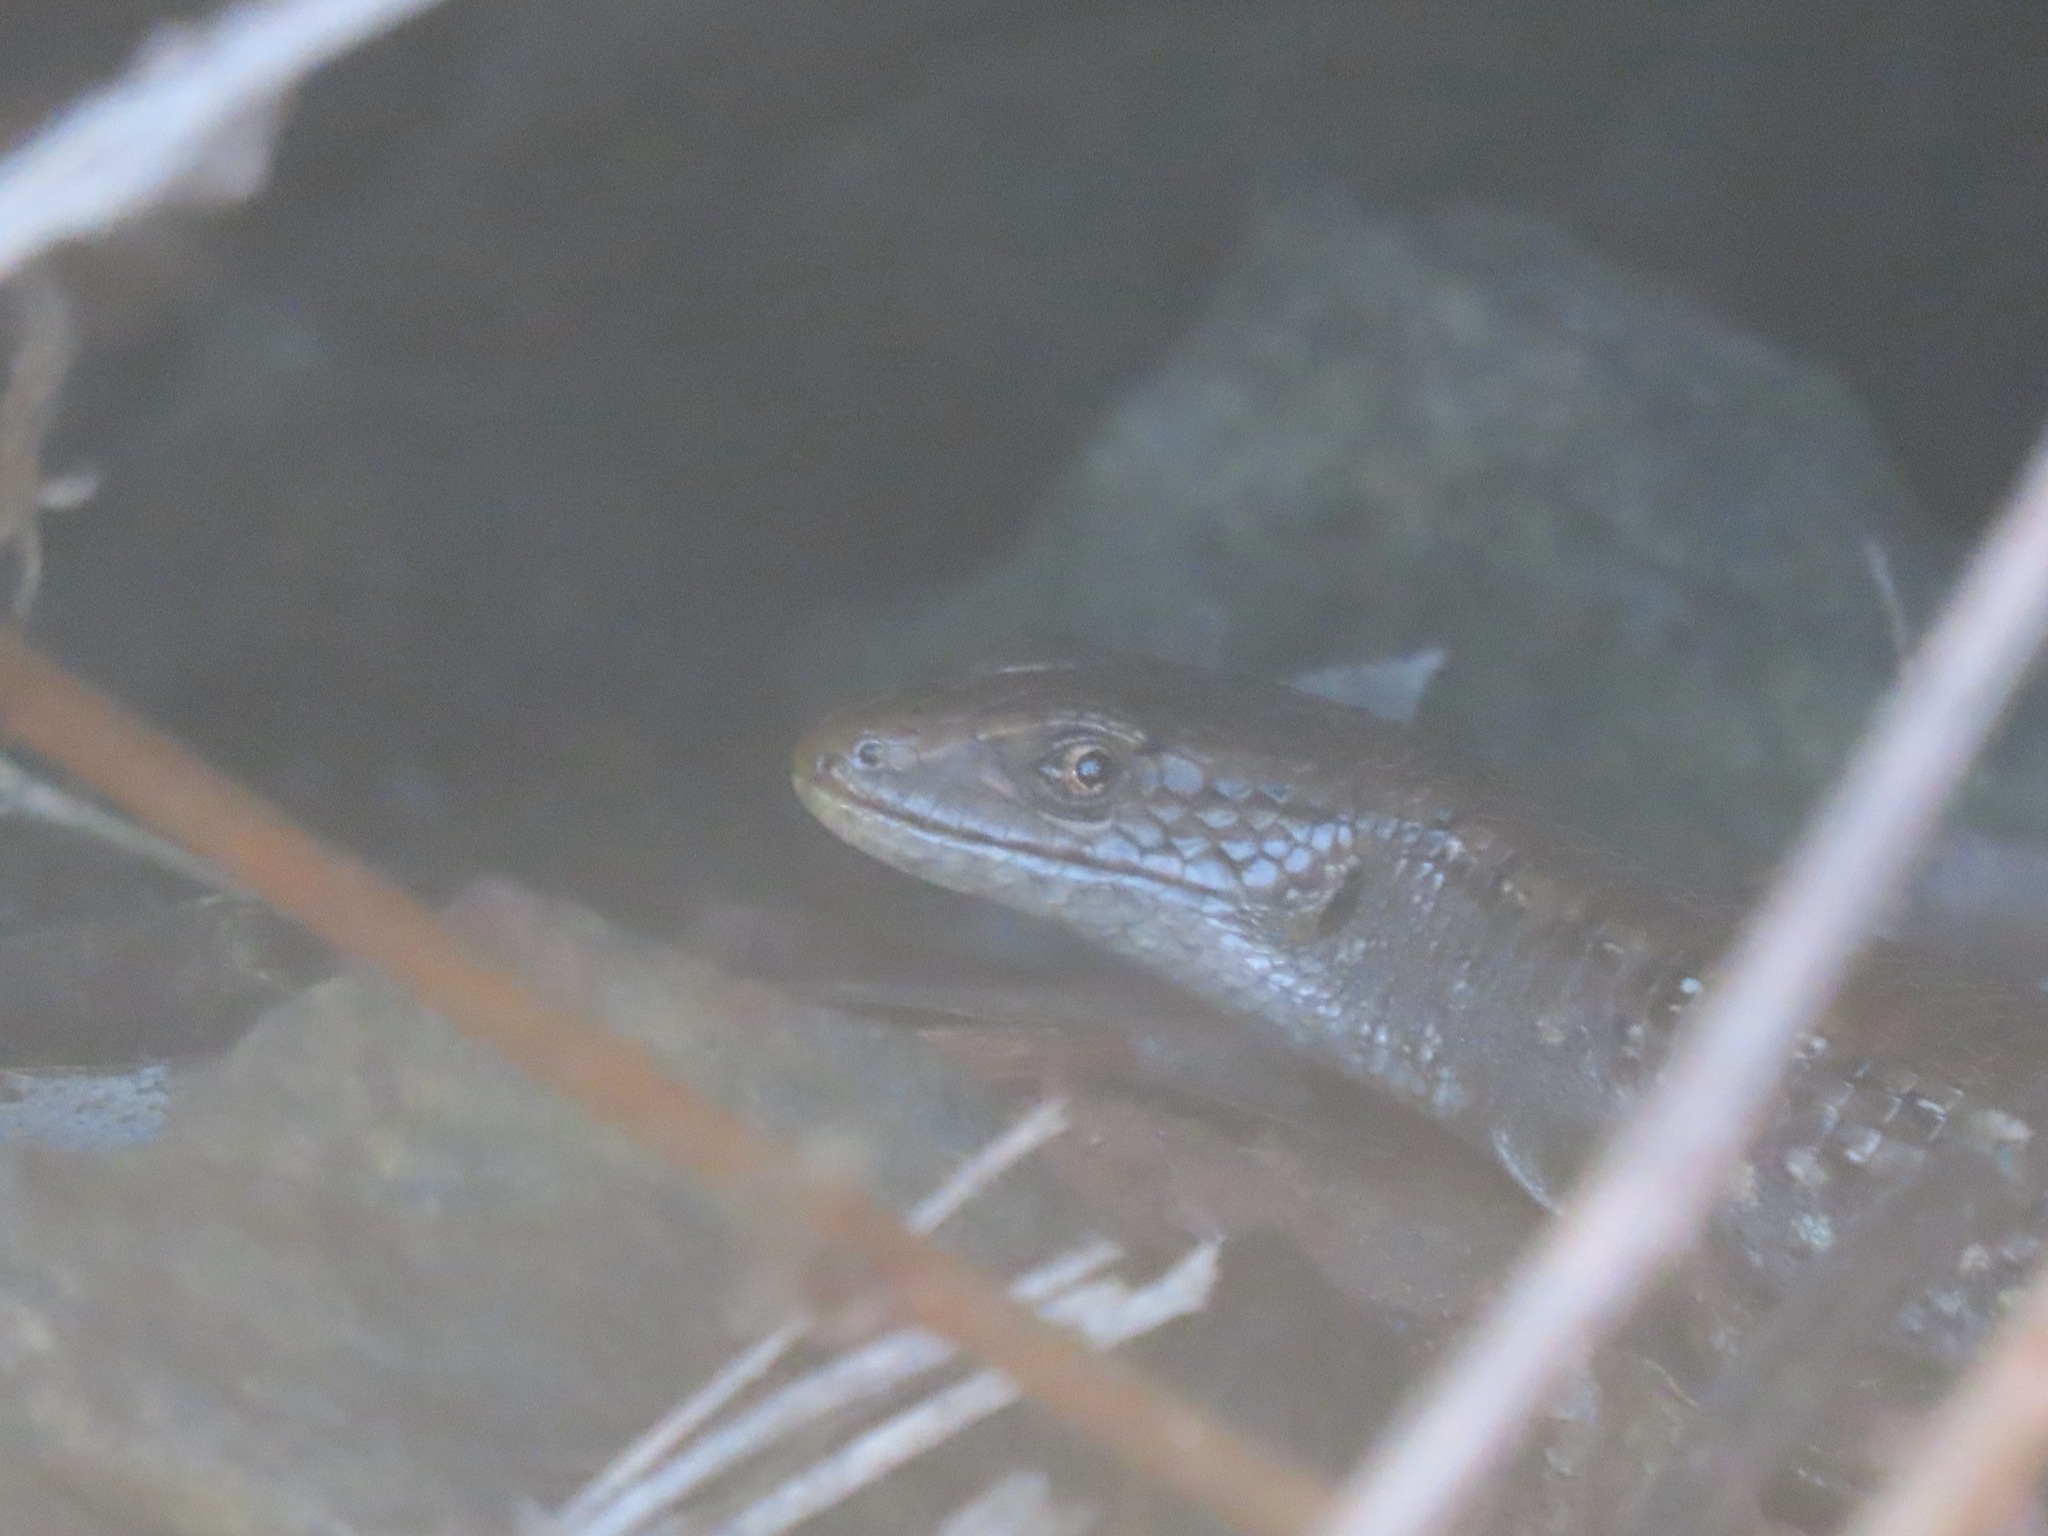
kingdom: Animalia
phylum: Chordata
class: Squamata
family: Anguidae
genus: Elgaria
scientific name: Elgaria coerulea
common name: Northern alligator lizard
